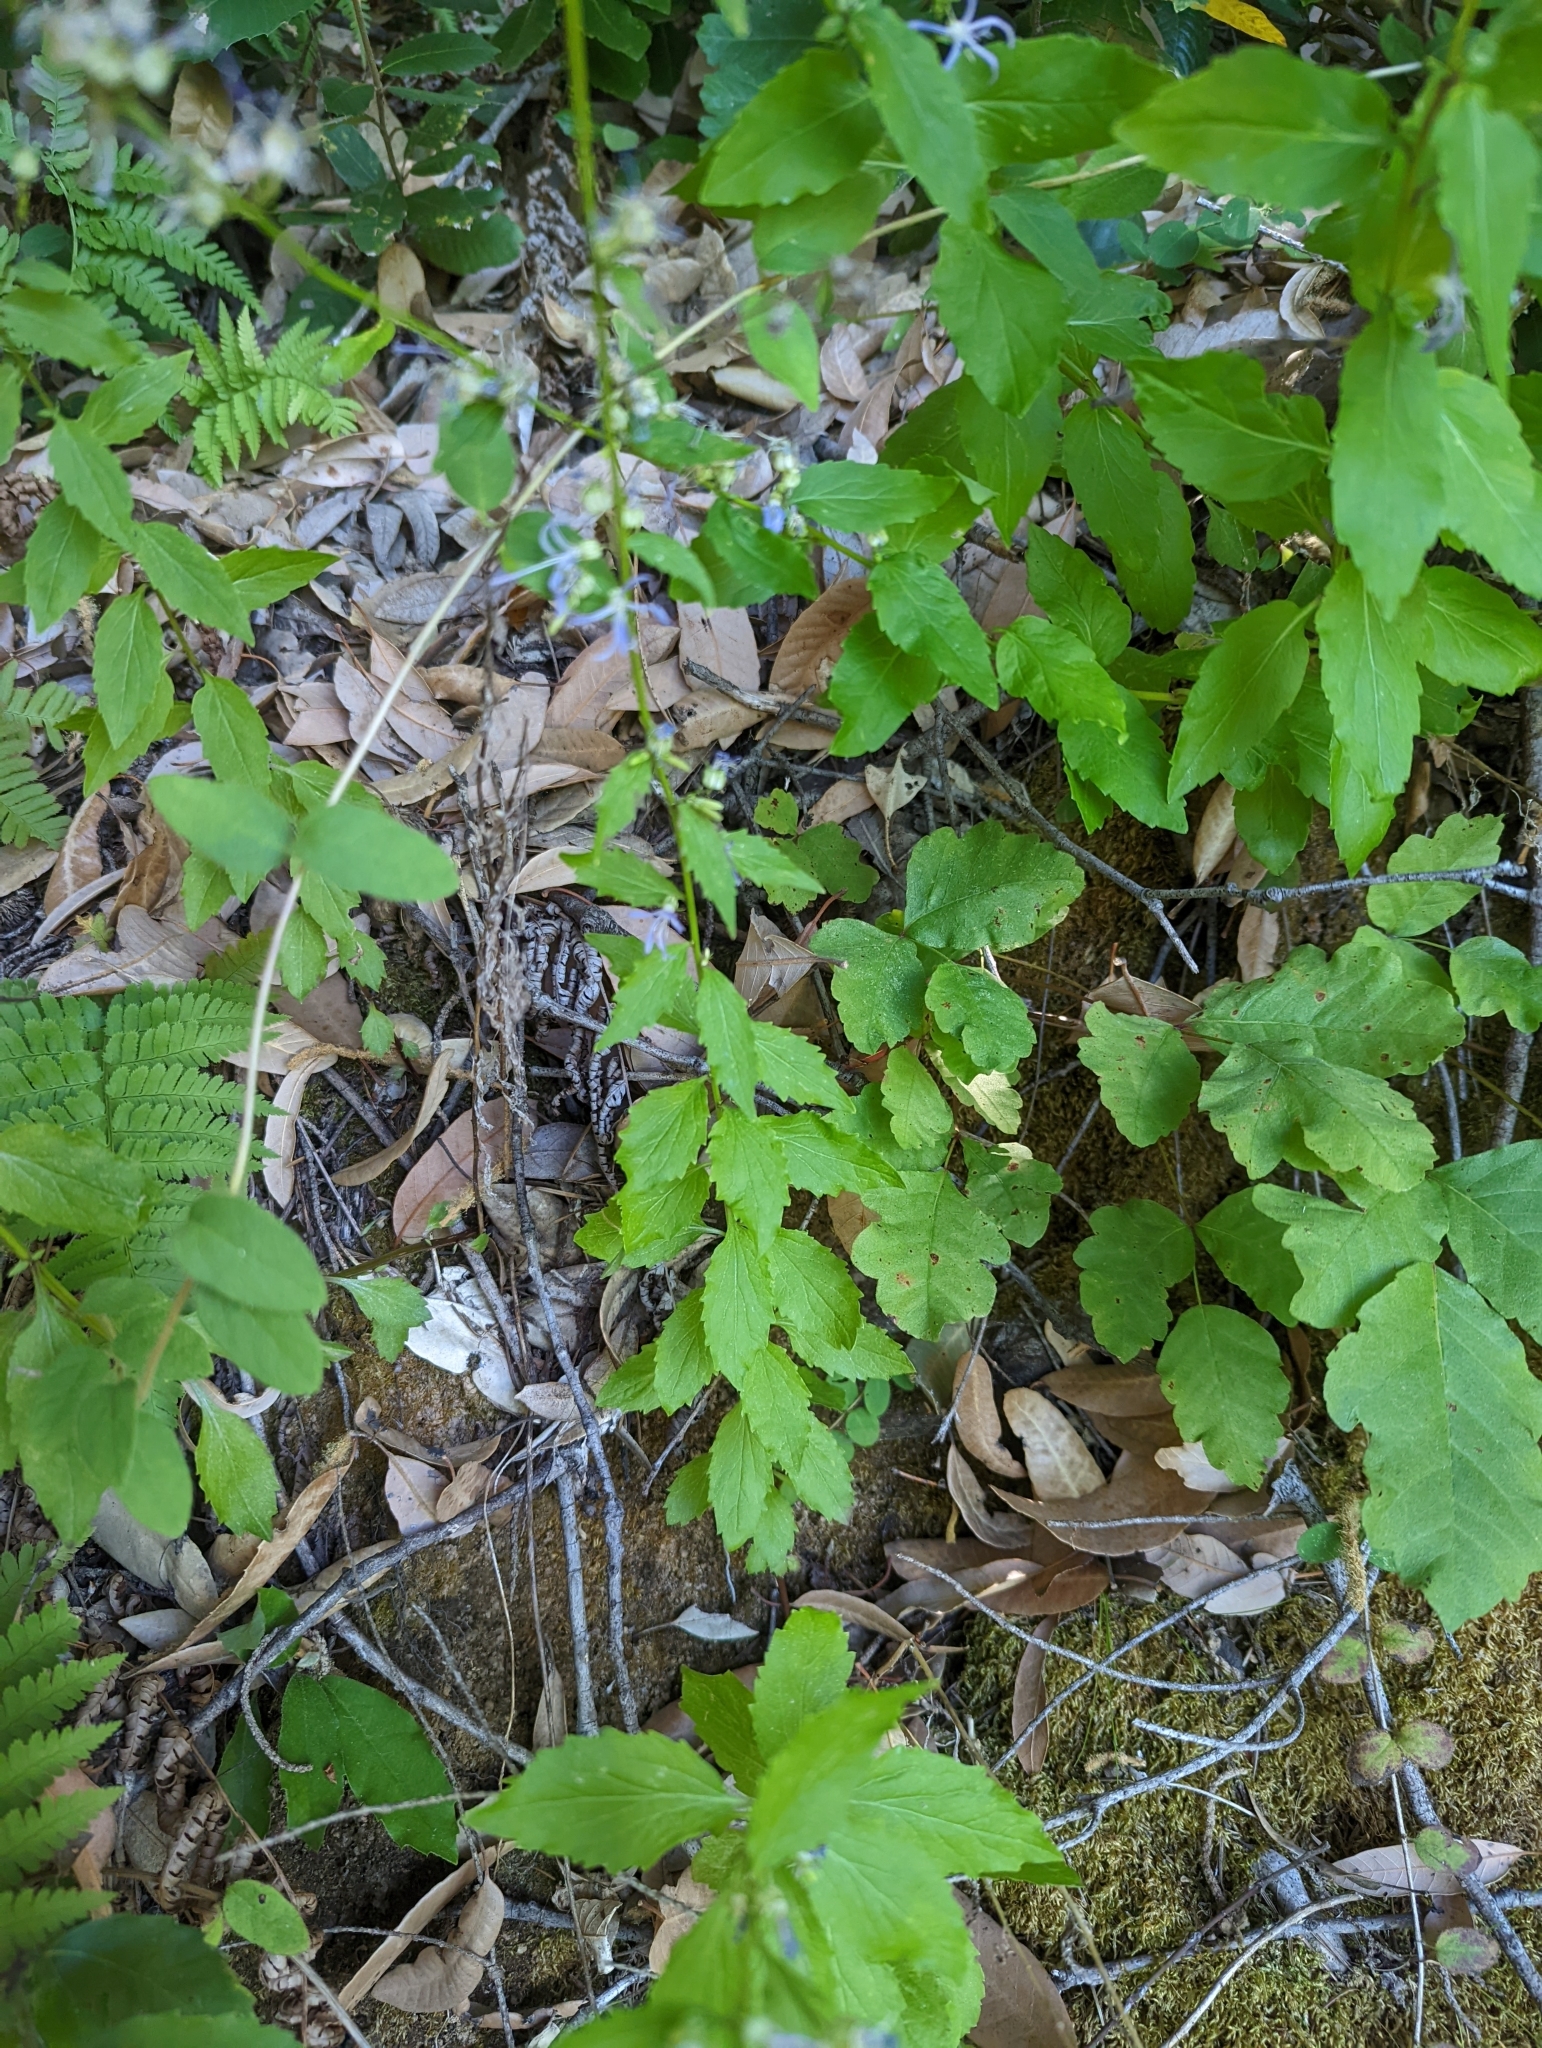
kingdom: Plantae
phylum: Tracheophyta
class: Magnoliopsida
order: Asterales
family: Campanulaceae
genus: Smithiastrum
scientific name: Smithiastrum prenanthoides
